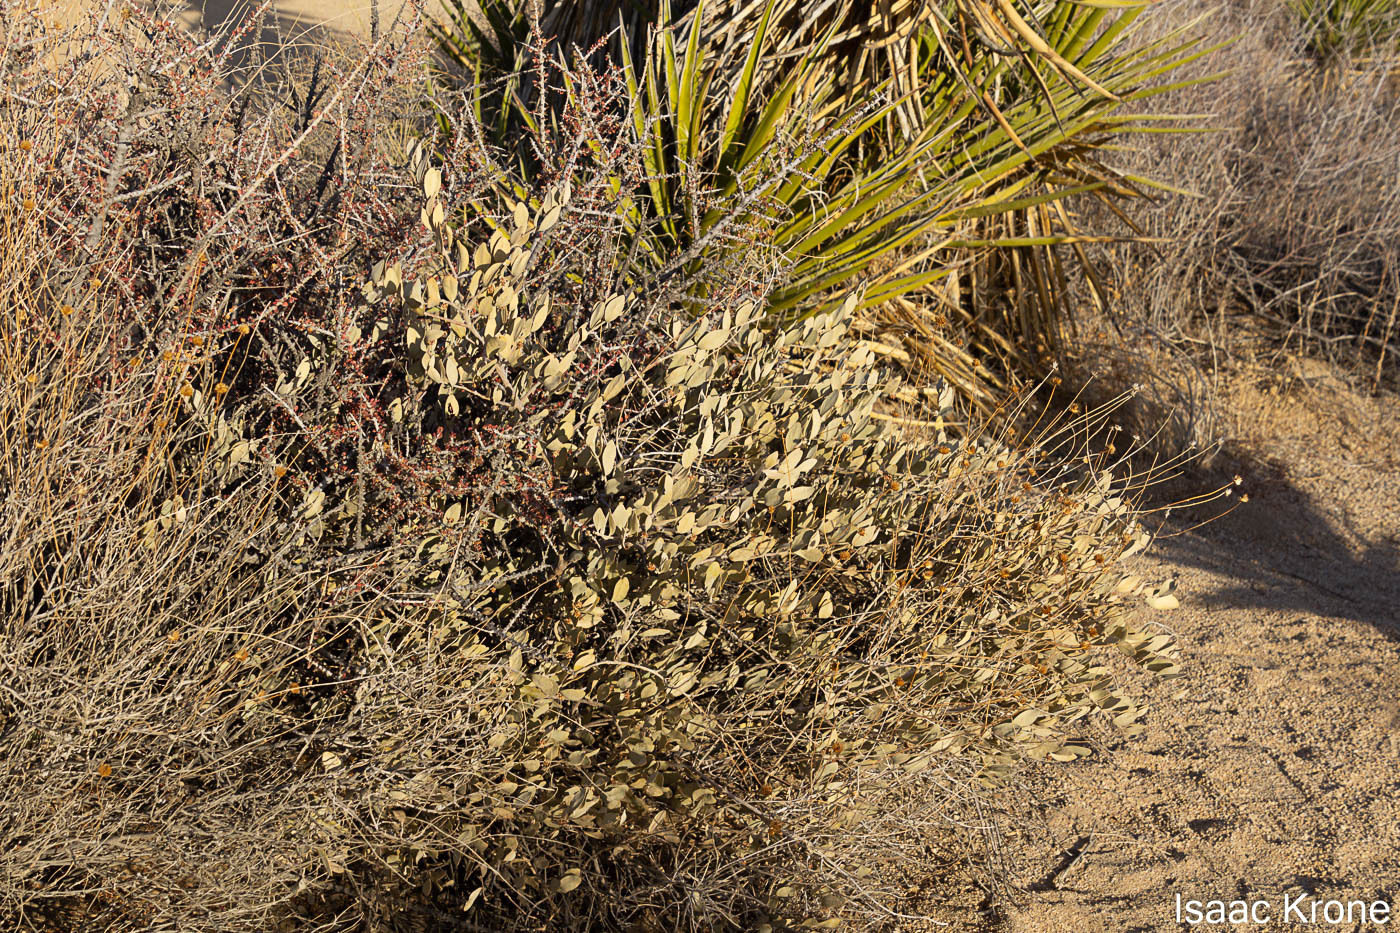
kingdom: Plantae
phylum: Tracheophyta
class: Magnoliopsida
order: Caryophyllales
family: Simmondsiaceae
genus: Simmondsia
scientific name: Simmondsia chinensis
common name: Jojoba
